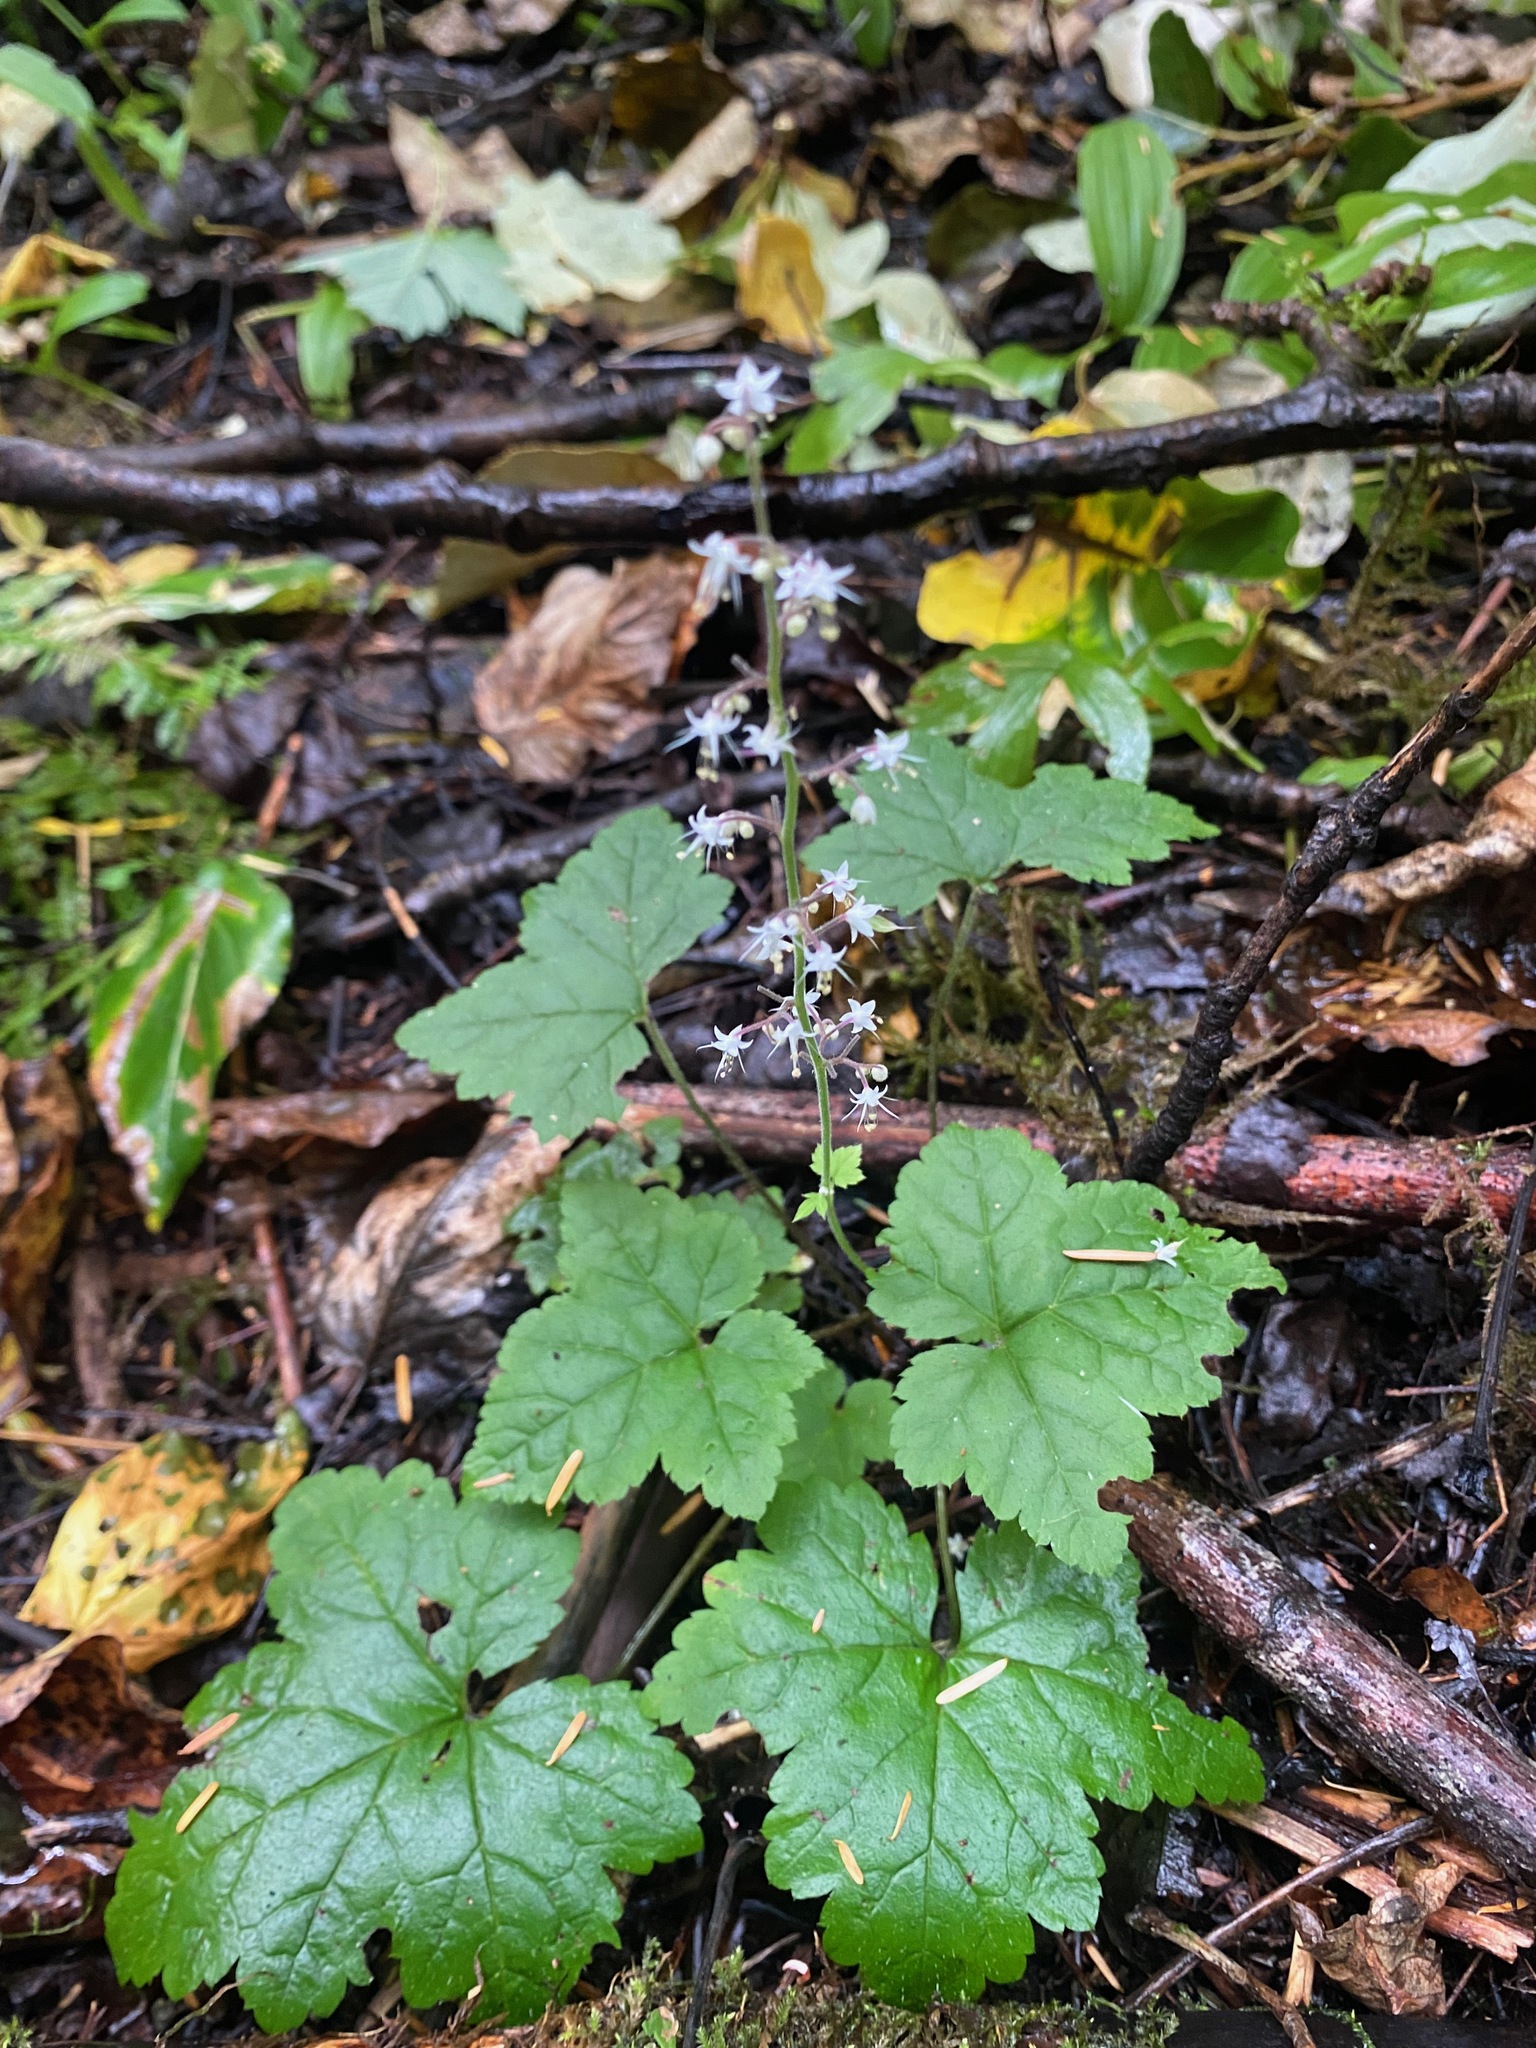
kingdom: Plantae
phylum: Tracheophyta
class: Magnoliopsida
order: Saxifragales
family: Saxifragaceae
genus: Tiarella
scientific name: Tiarella trifoliata
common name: Sugar-scoop
